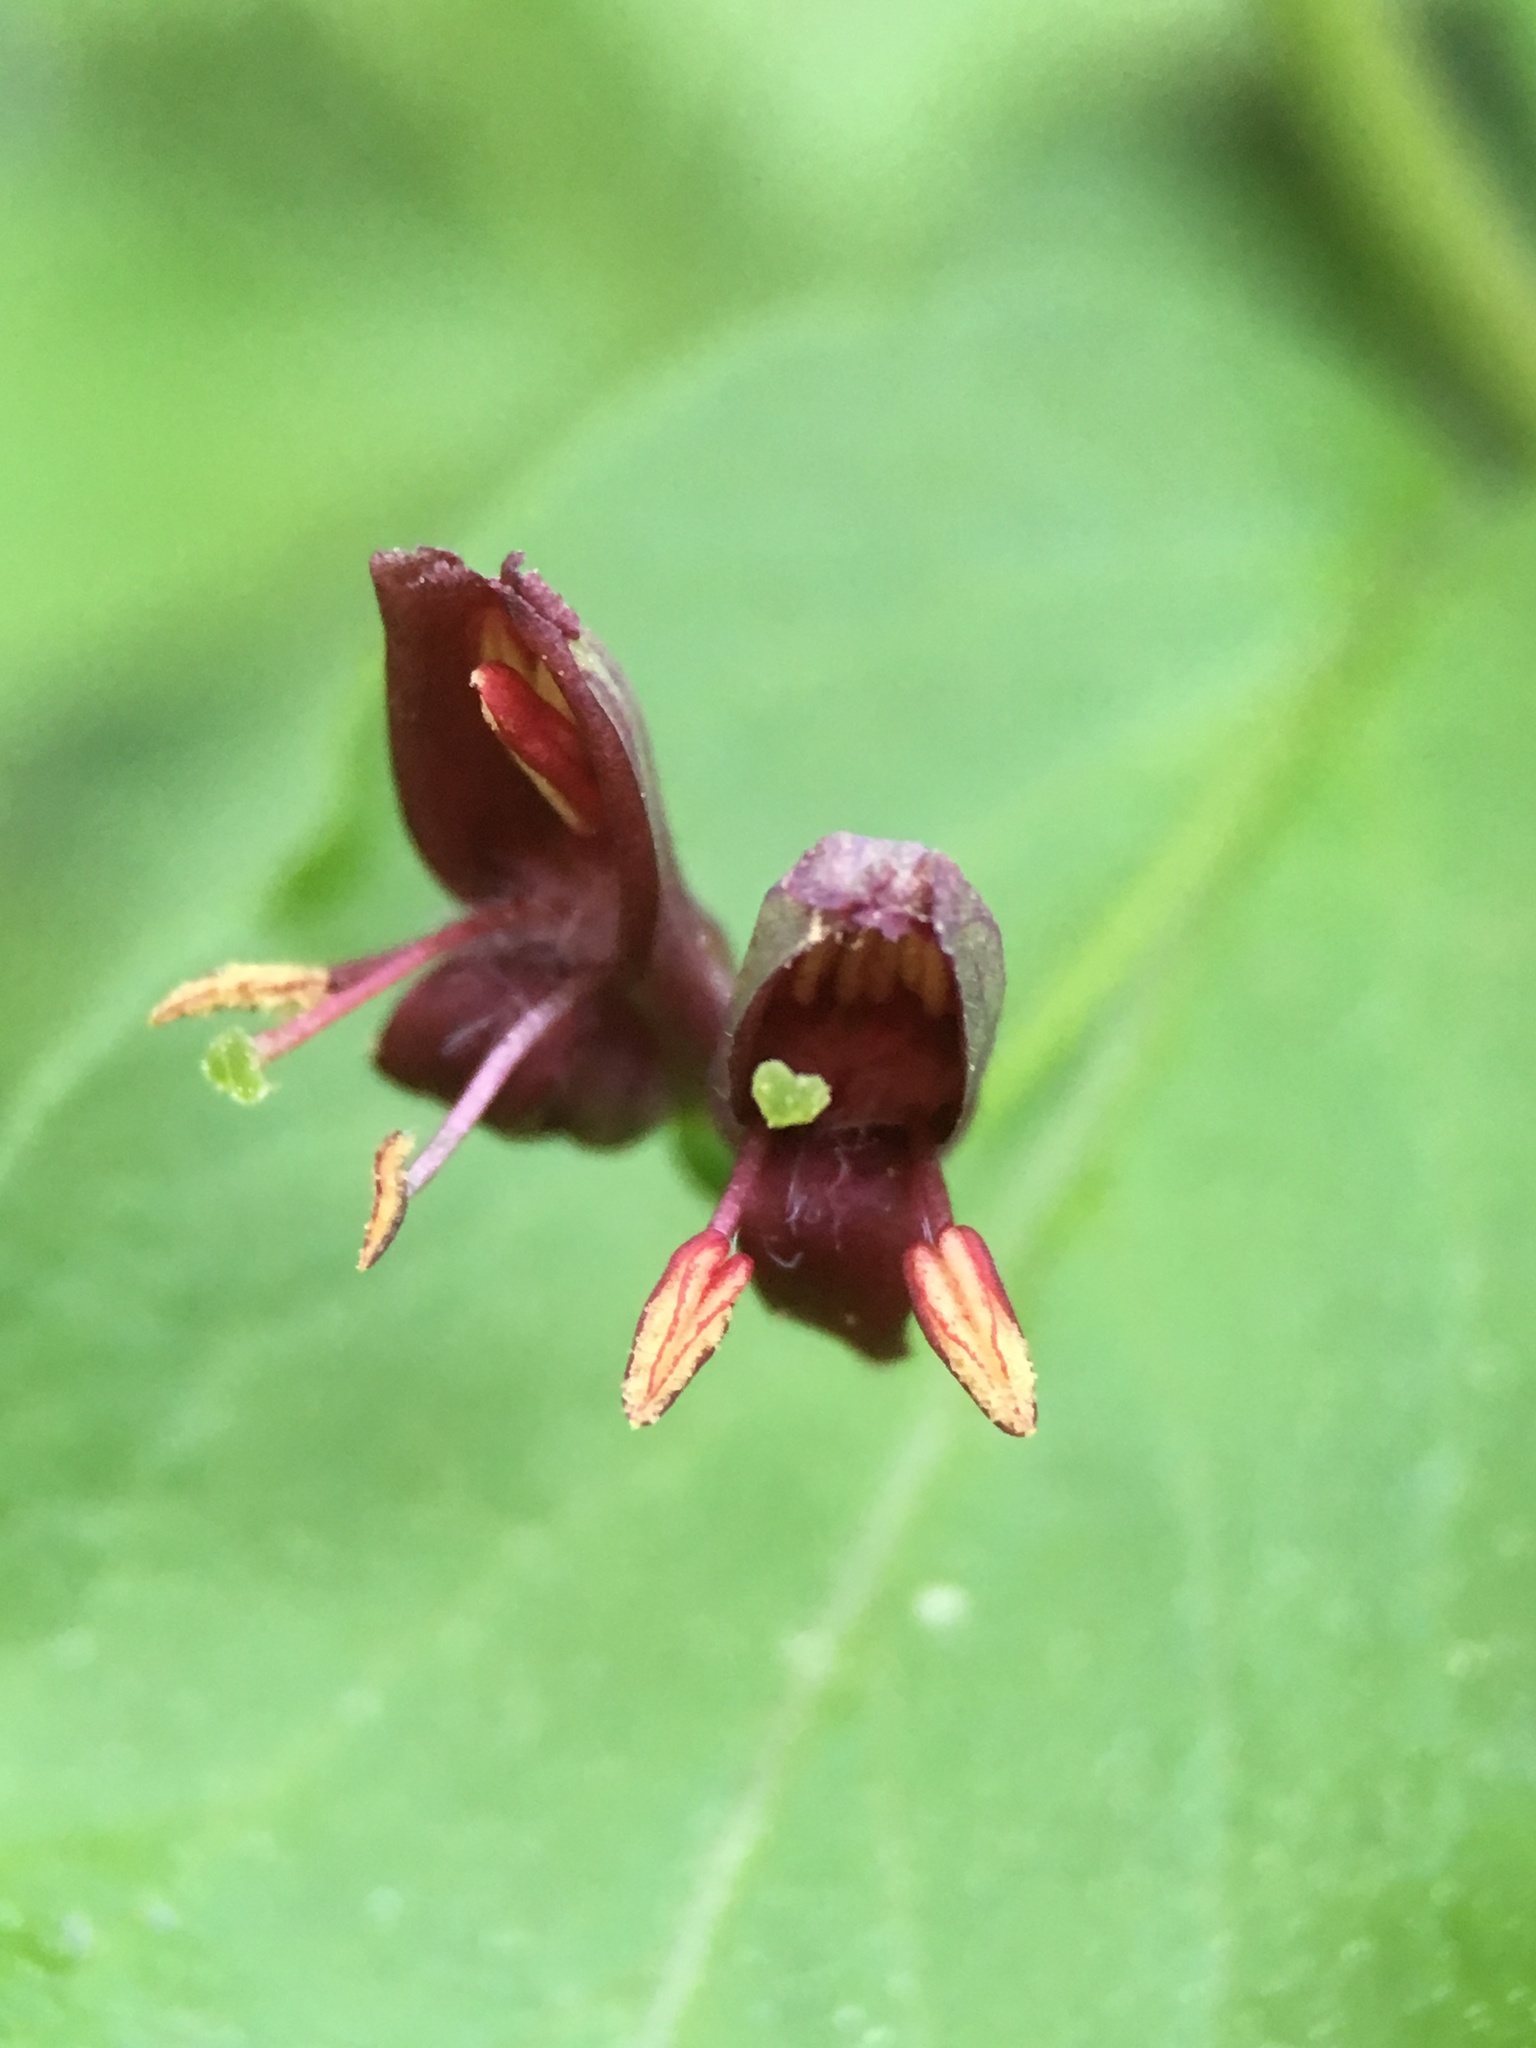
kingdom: Plantae
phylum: Tracheophyta
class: Magnoliopsida
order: Dipsacales
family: Caprifoliaceae
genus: Lonicera
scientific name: Lonicera conjugialis
